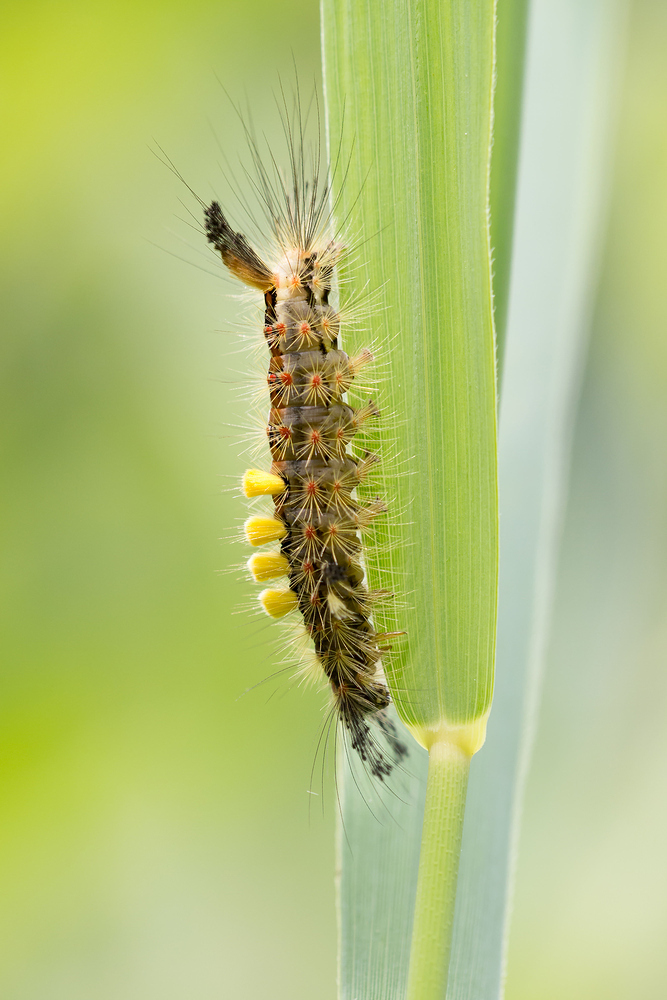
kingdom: Animalia
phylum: Arthropoda
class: Insecta
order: Lepidoptera
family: Erebidae
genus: Orgyia
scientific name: Orgyia antiqua
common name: Vapourer
